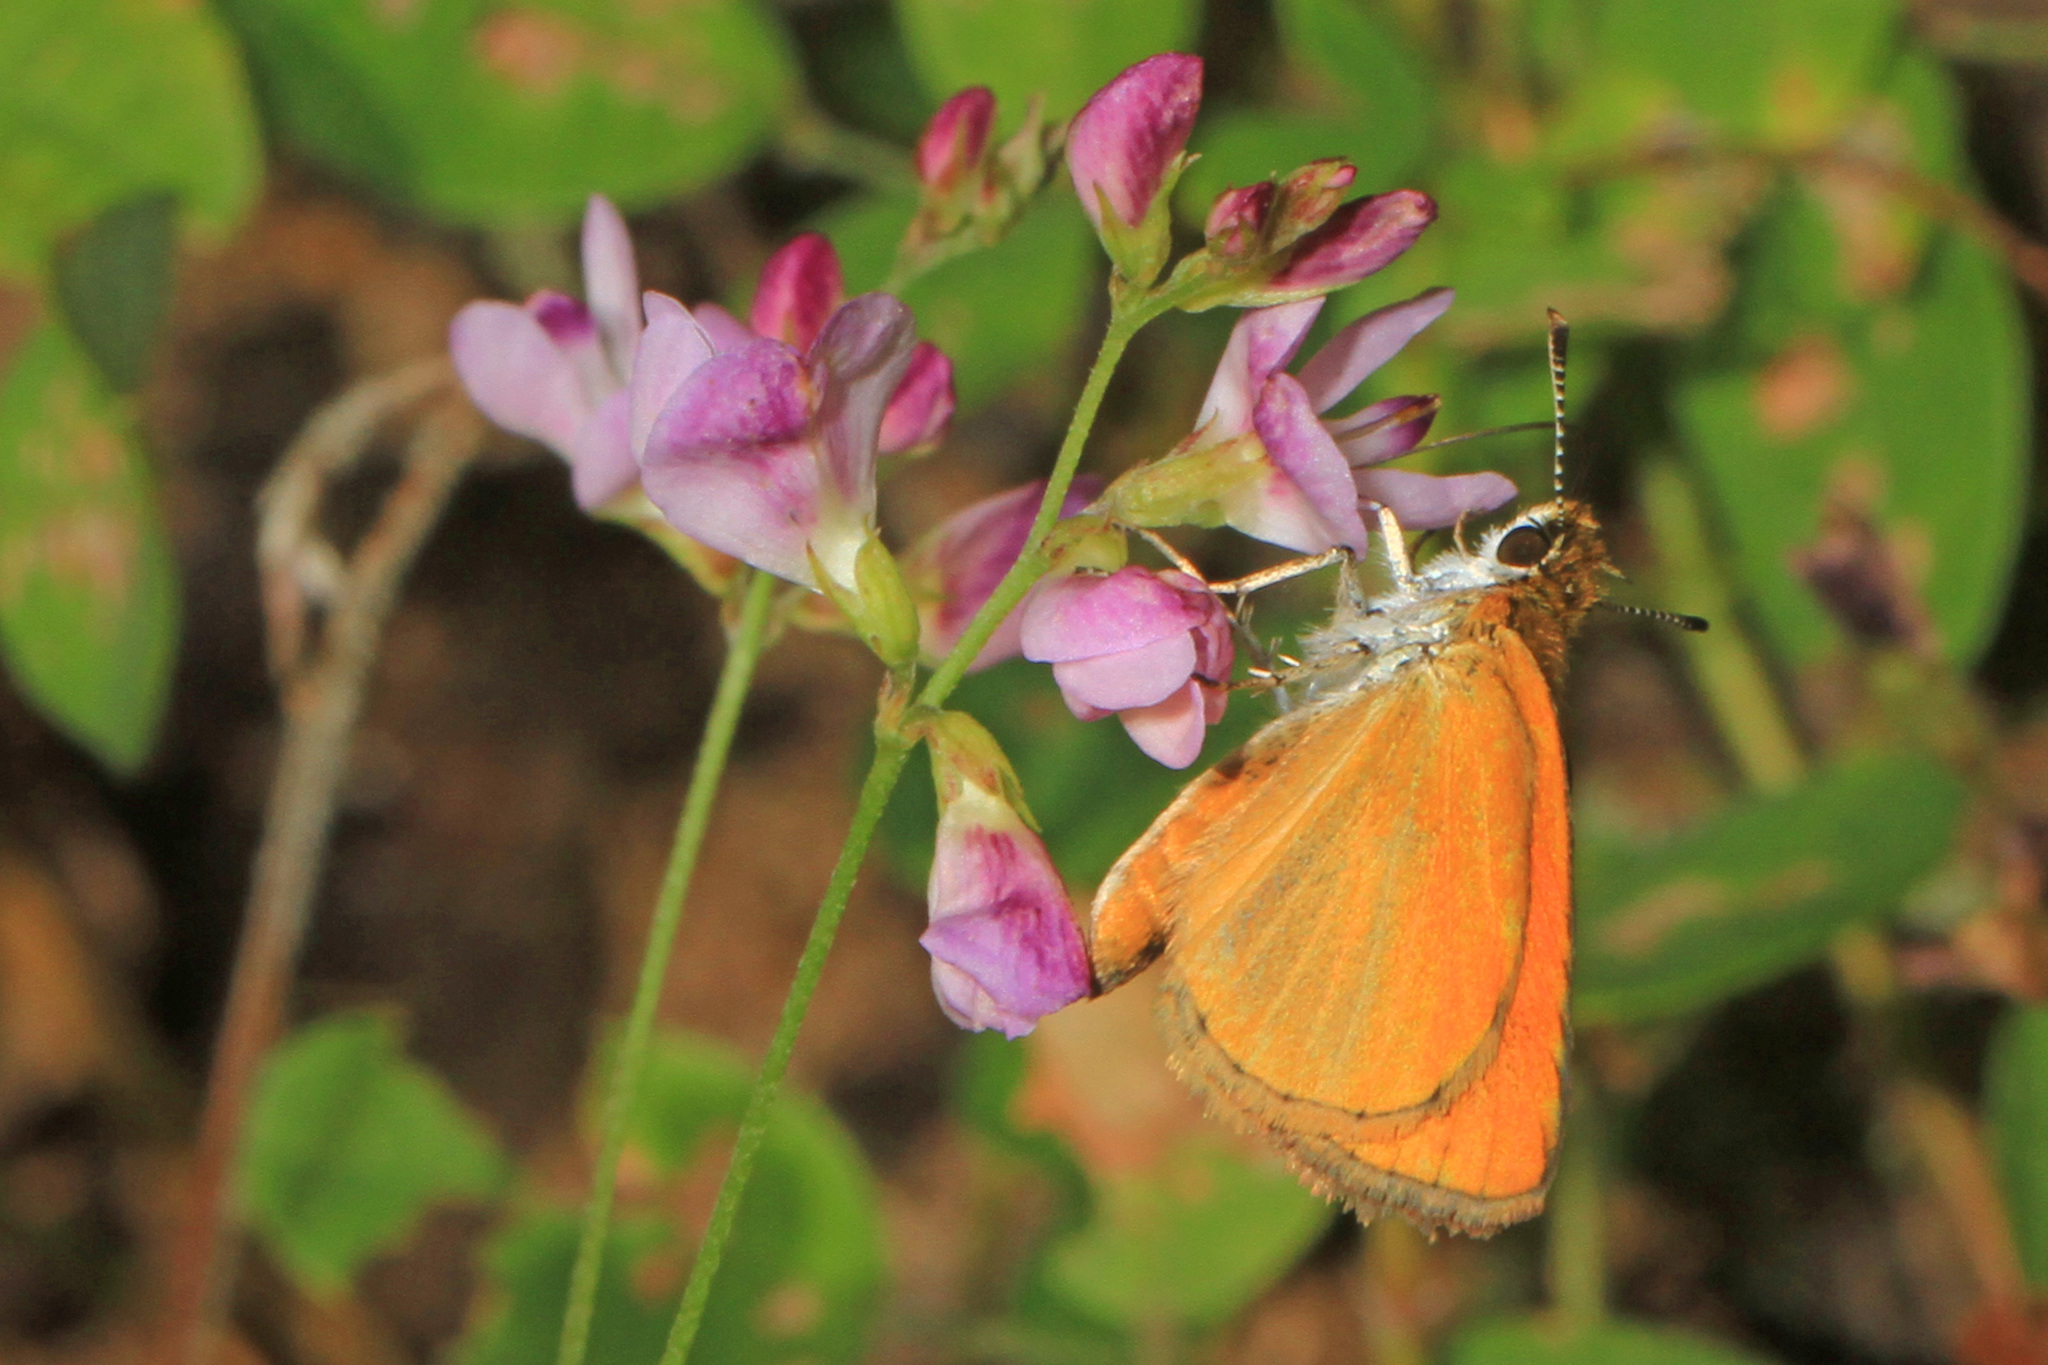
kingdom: Animalia
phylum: Arthropoda
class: Insecta
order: Lepidoptera
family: Hesperiidae
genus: Ancyloxypha
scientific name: Ancyloxypha numitor
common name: Least skipper
